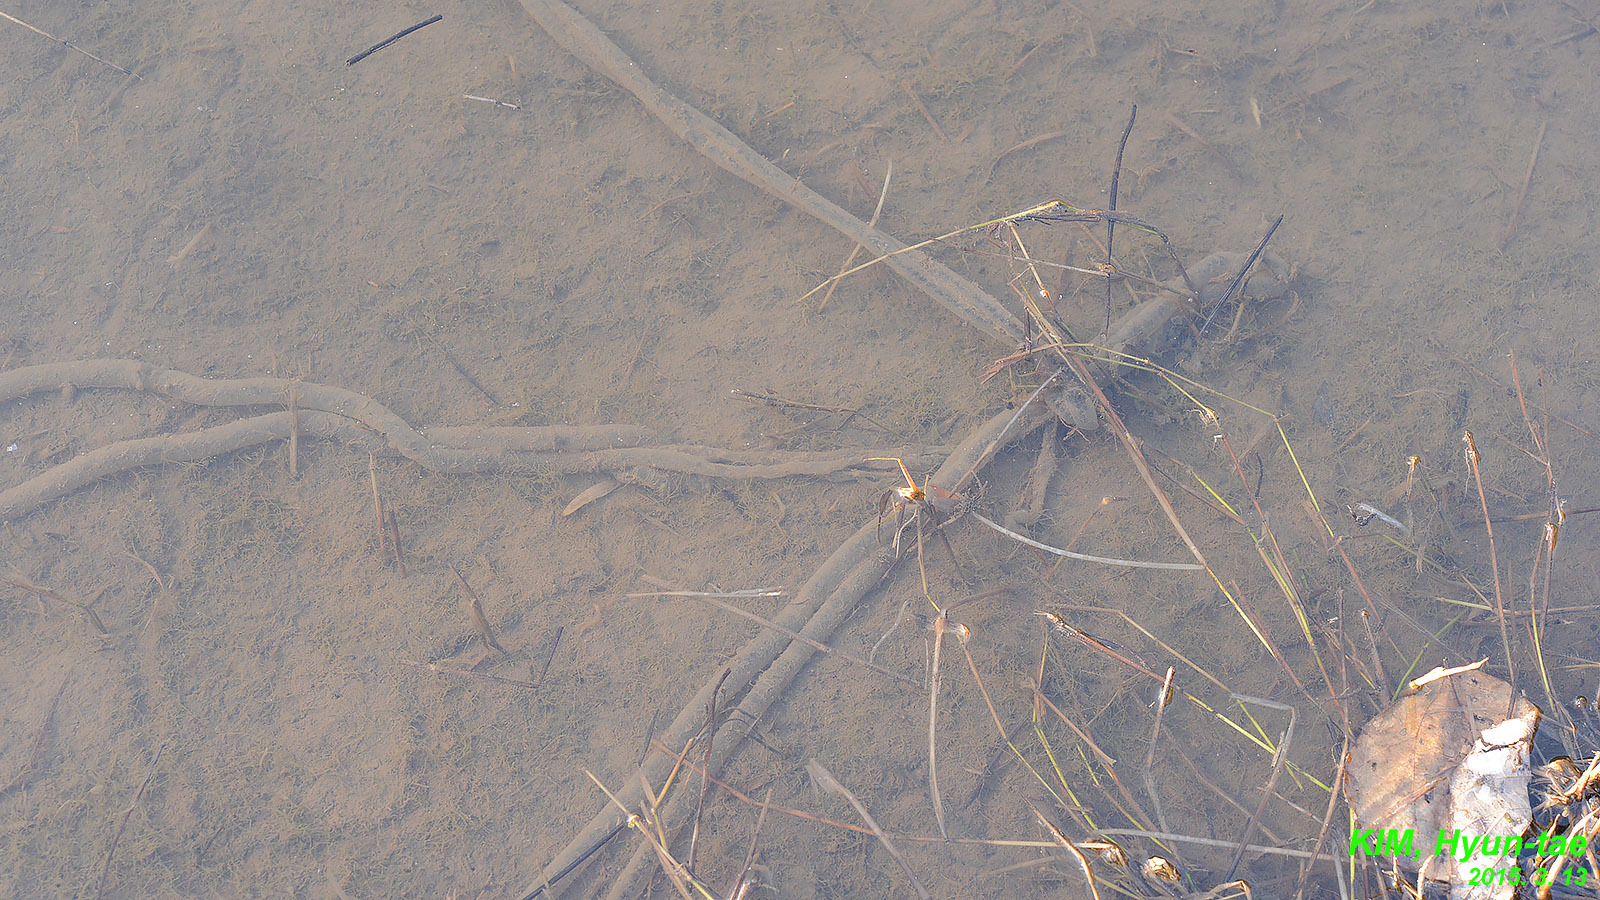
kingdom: Animalia
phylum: Chordata
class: Amphibia
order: Anura
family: Bufonidae
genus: Bufo
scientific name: Bufo gargarizans
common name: Asiatic toad
